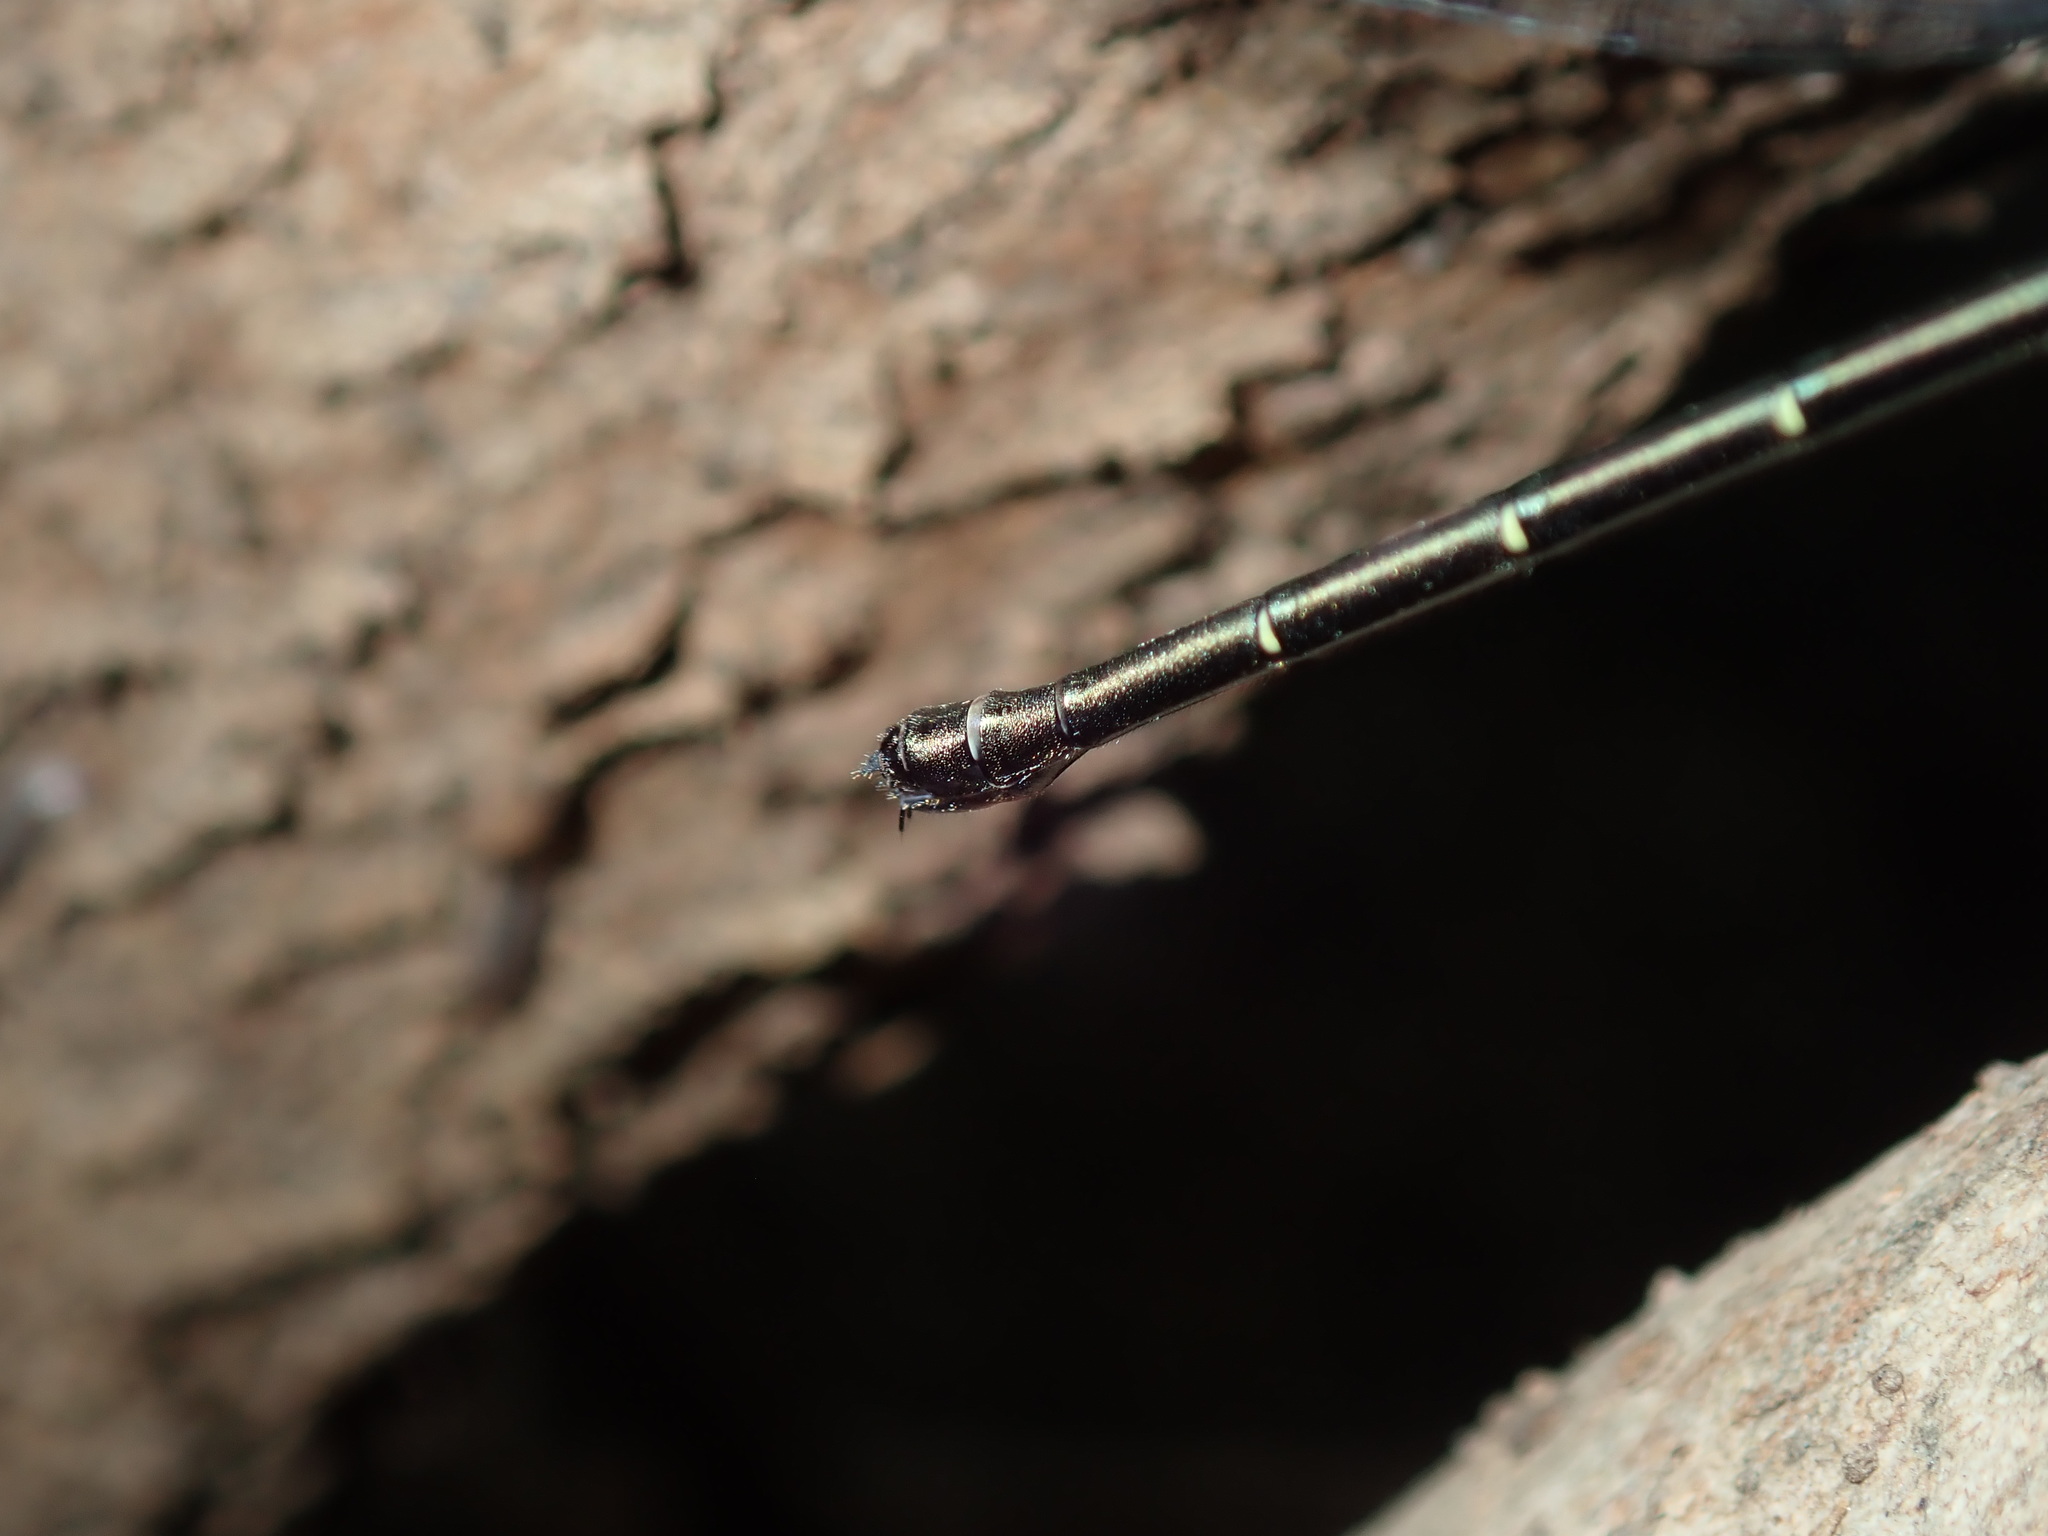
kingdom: Animalia
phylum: Arthropoda
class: Insecta
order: Odonata
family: Argiolestidae
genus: Austroargiolestes
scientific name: Austroargiolestes icteromelas
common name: Common flatwing
